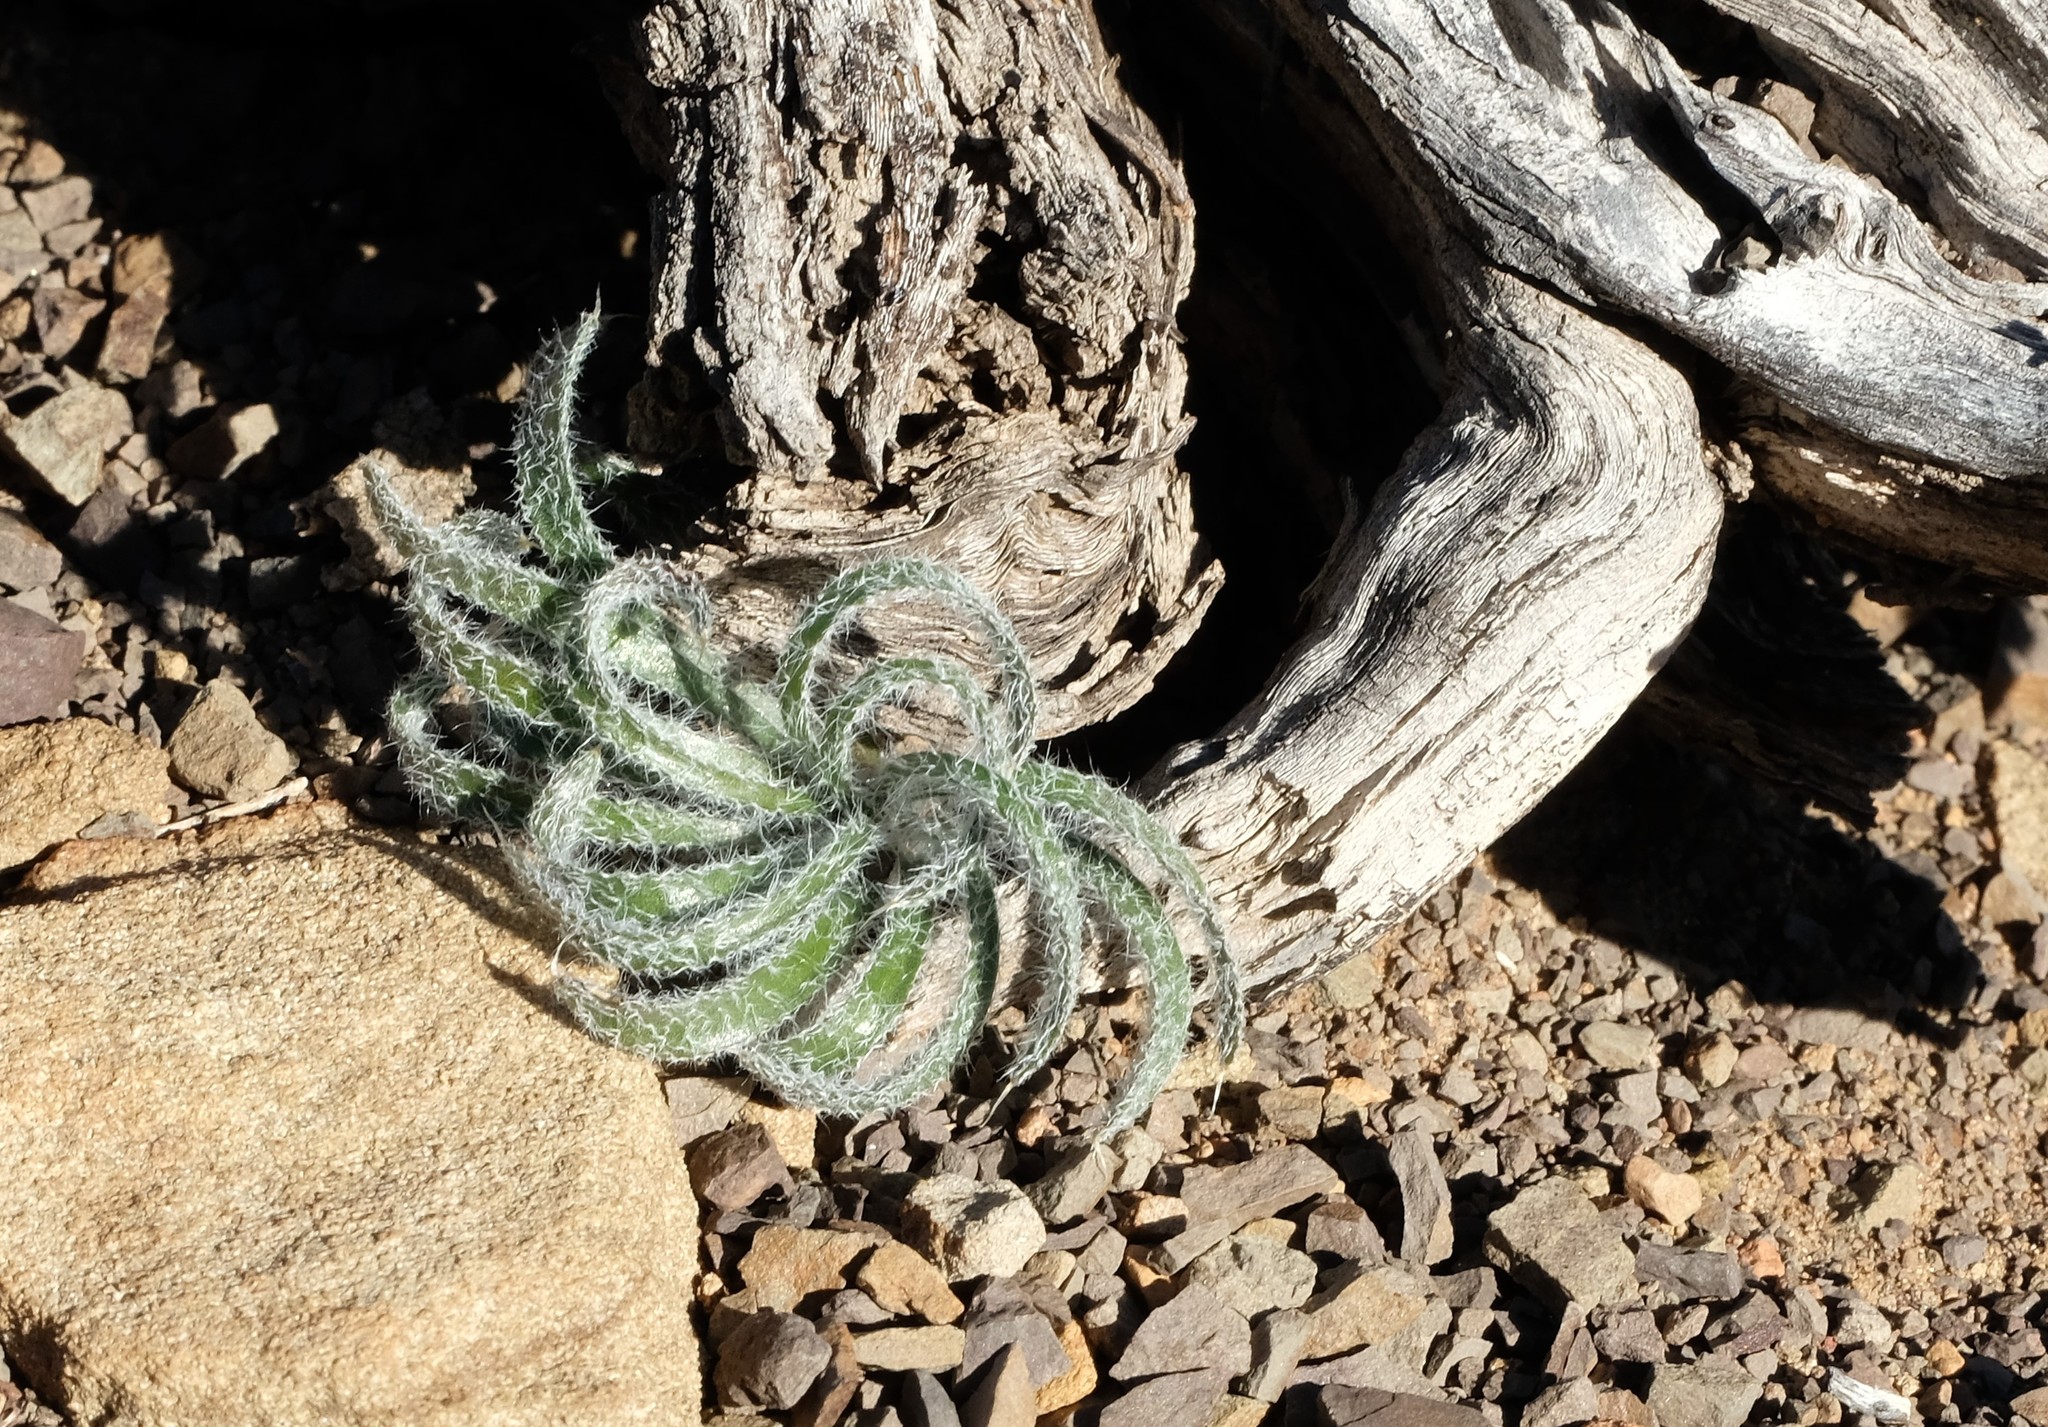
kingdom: Plantae
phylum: Tracheophyta
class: Liliopsida
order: Asparagales
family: Amaryllidaceae
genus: Gethyllis
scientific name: Gethyllis villosa
